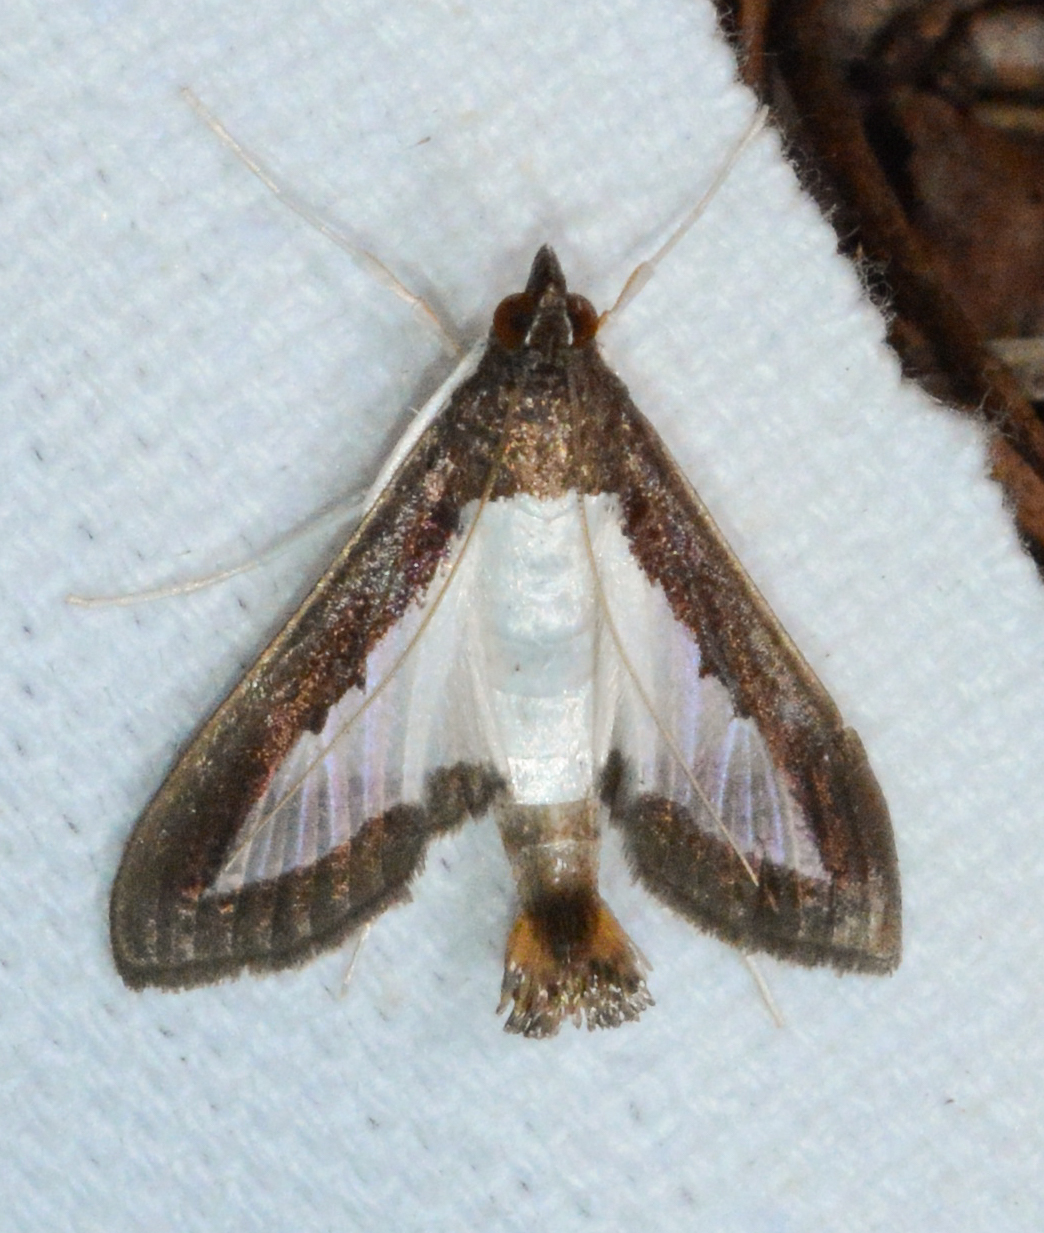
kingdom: Animalia
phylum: Arthropoda
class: Insecta
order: Lepidoptera
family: Crambidae
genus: Diaphania
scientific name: Diaphania hyalinata
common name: Melonworm
